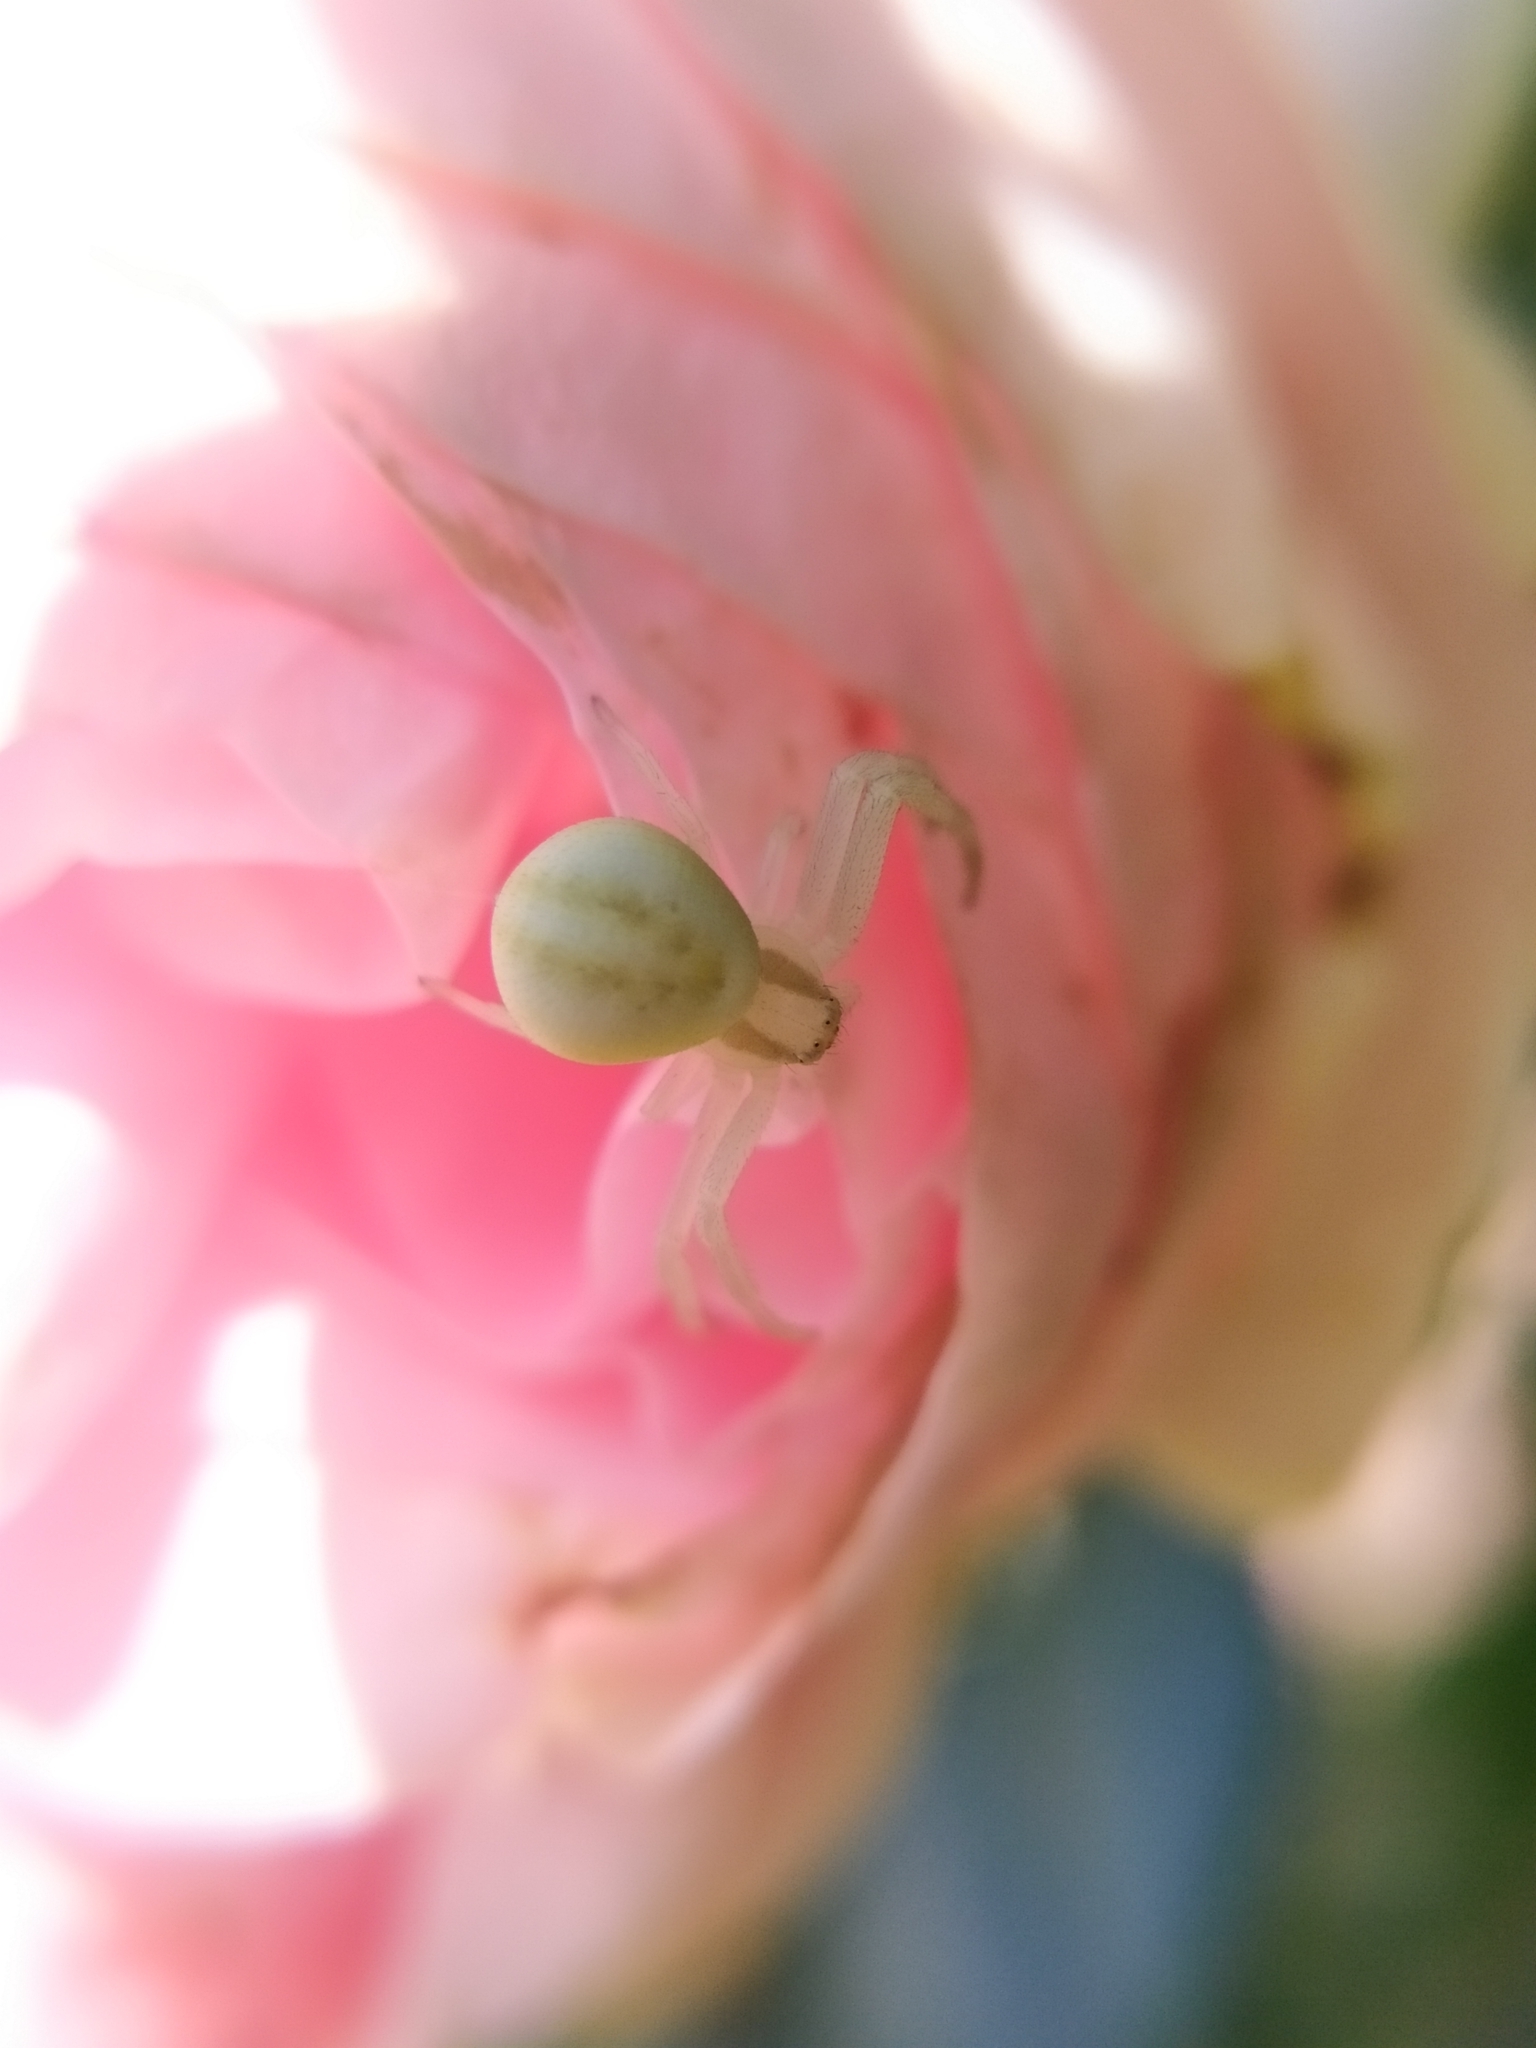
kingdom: Animalia
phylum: Arthropoda
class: Arachnida
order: Araneae
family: Thomisidae
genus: Misumena
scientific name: Misumena vatia
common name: Goldenrod crab spider
